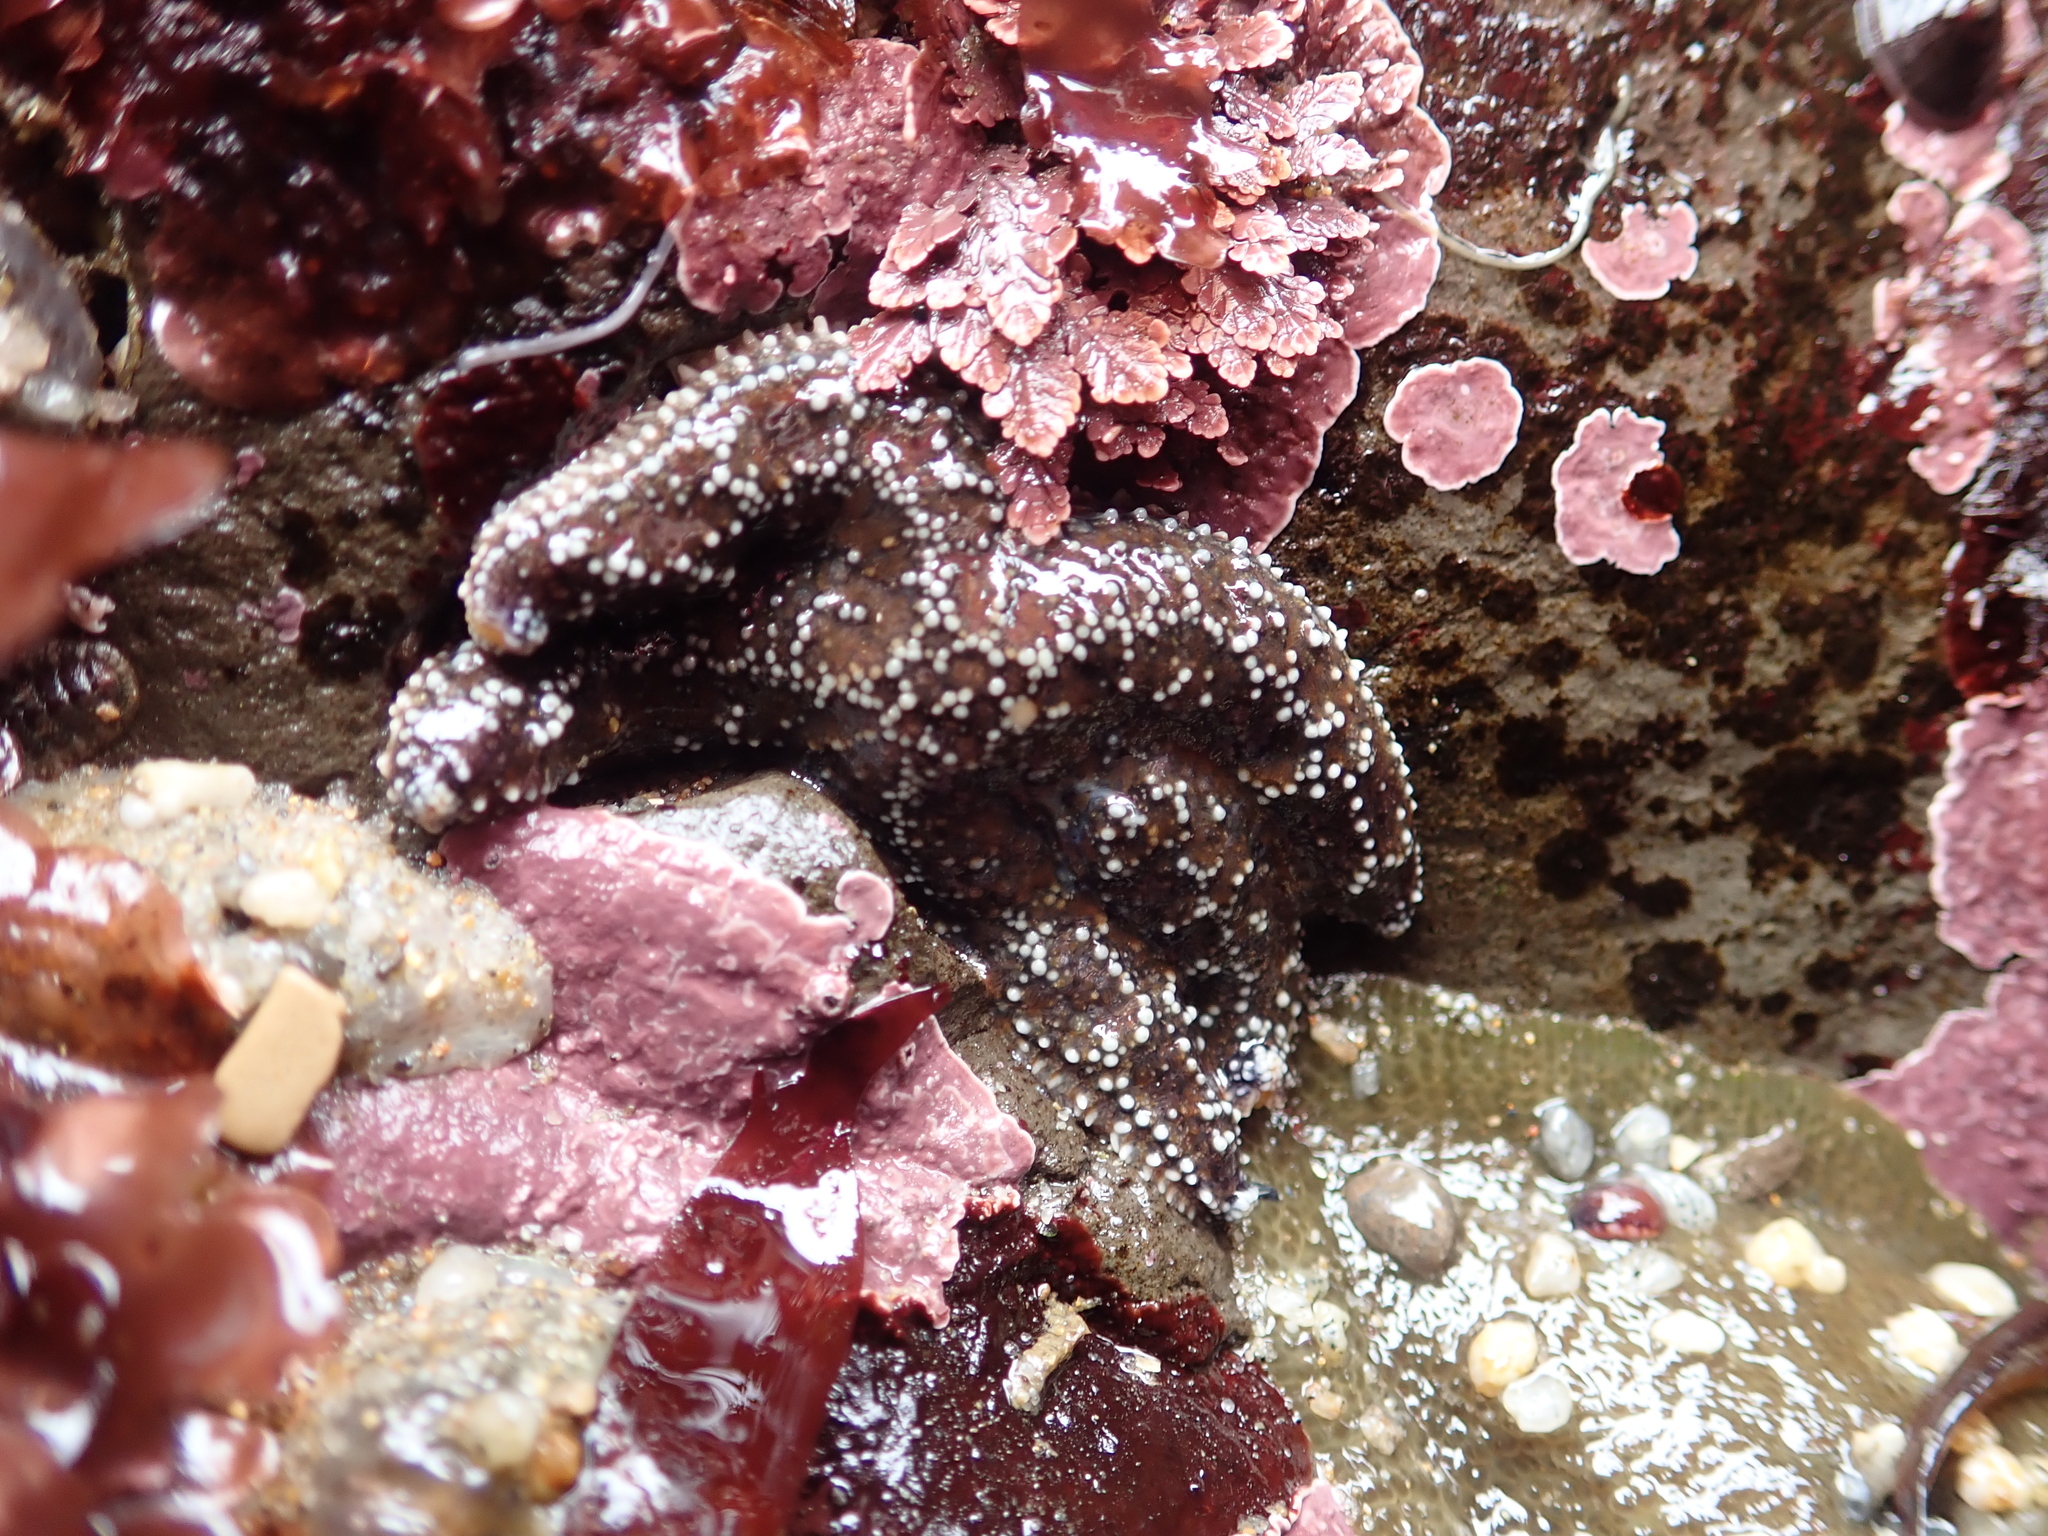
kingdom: Animalia
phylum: Echinodermata
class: Asteroidea
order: Forcipulatida
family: Asteriidae
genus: Pisaster
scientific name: Pisaster ochraceus
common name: Ochre stars
